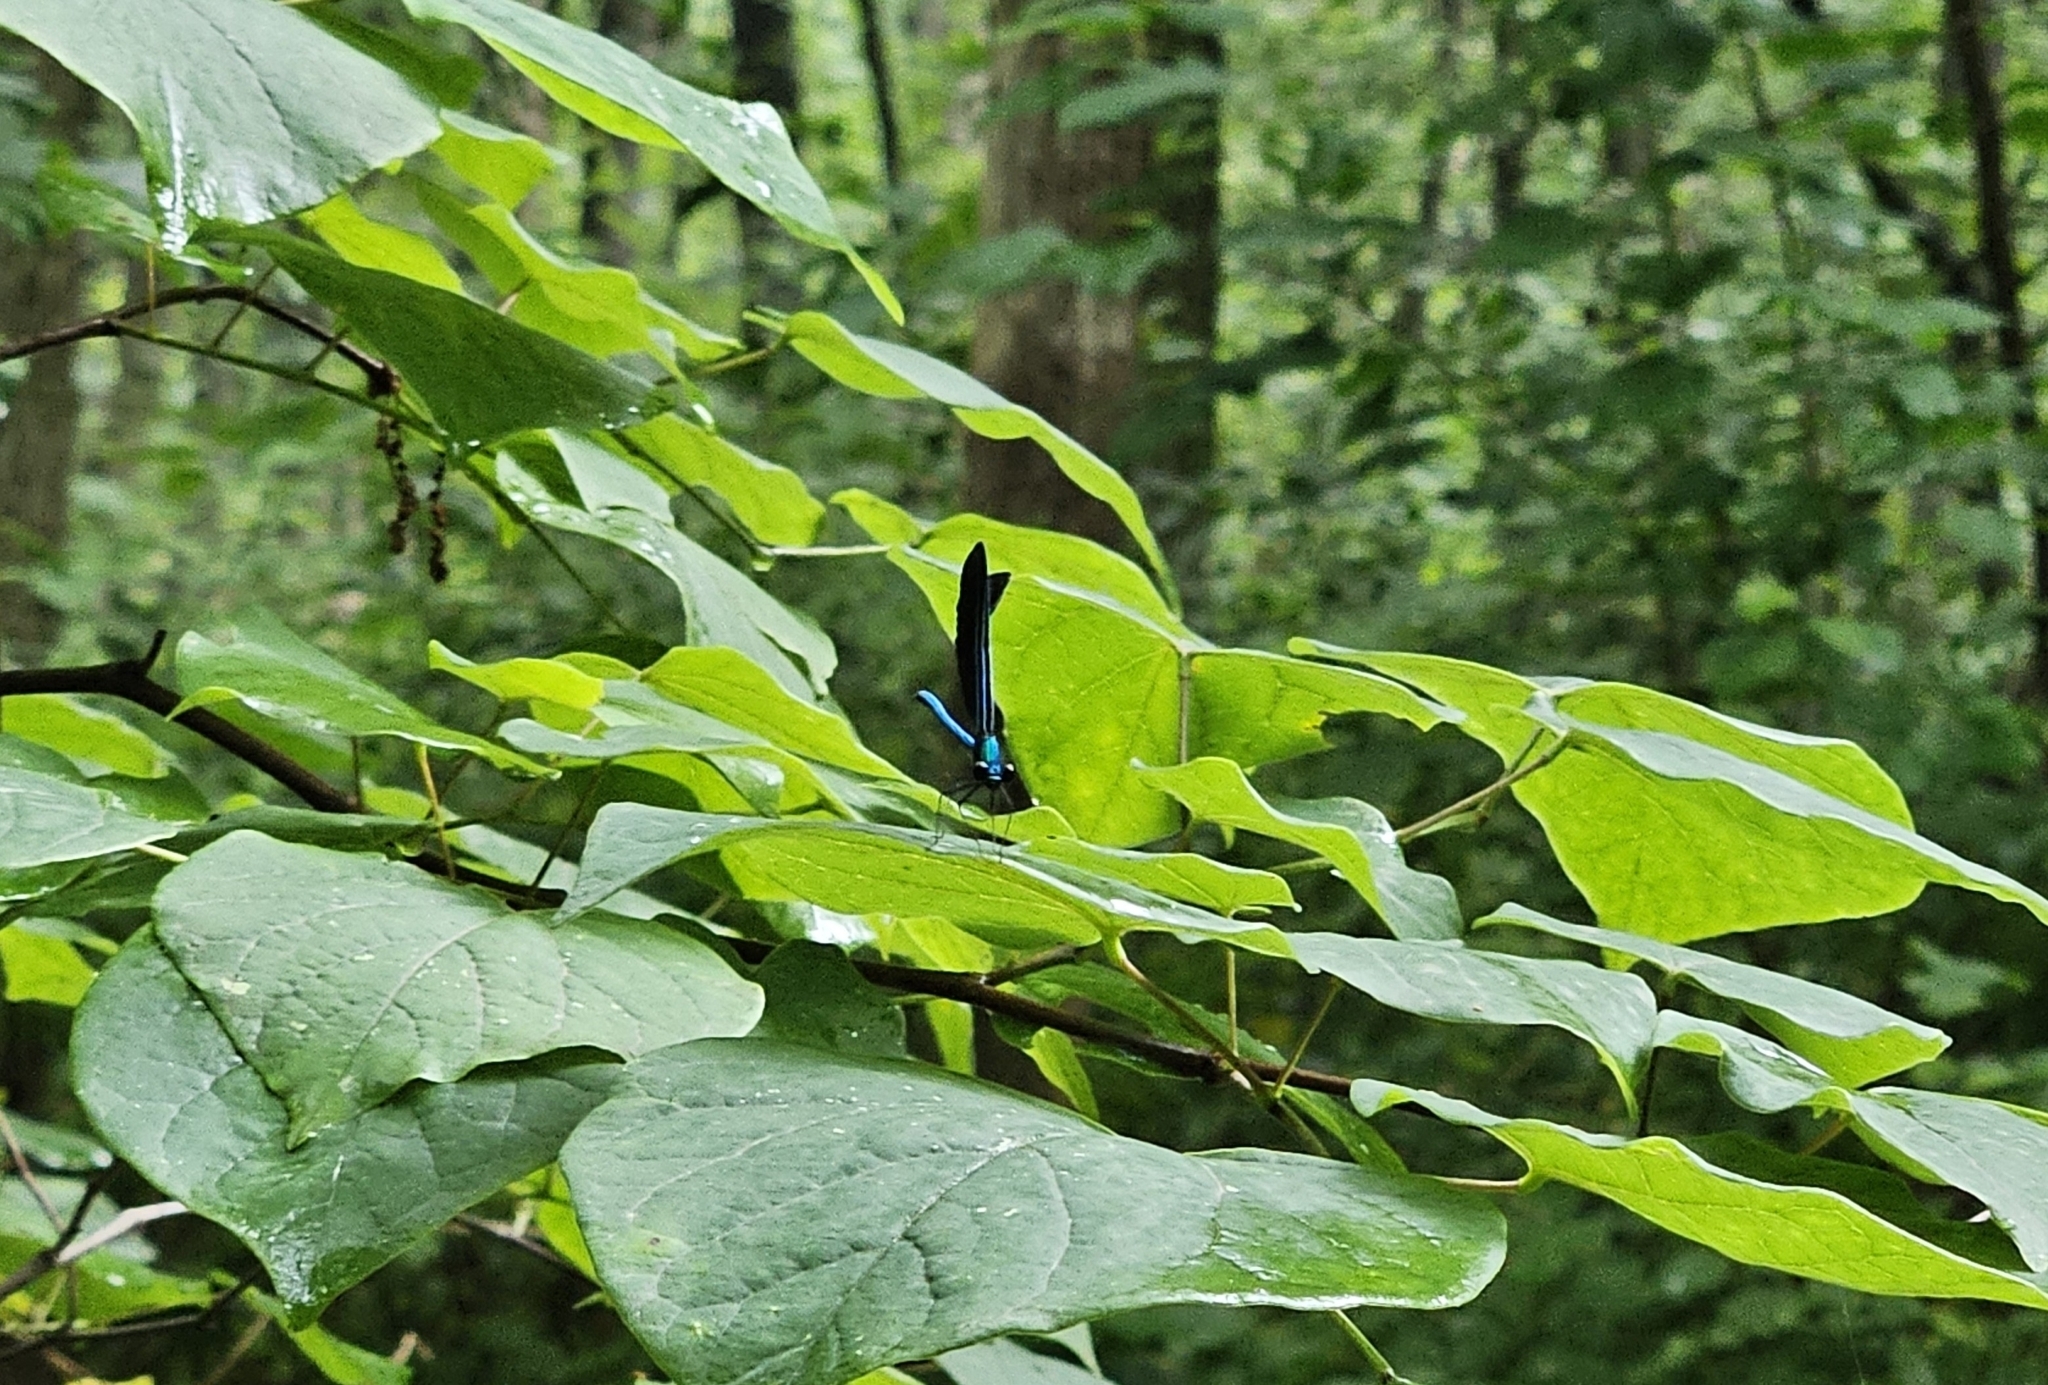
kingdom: Animalia
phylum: Arthropoda
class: Insecta
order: Odonata
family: Calopterygidae
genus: Calopteryx
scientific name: Calopteryx maculata
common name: Ebony jewelwing
